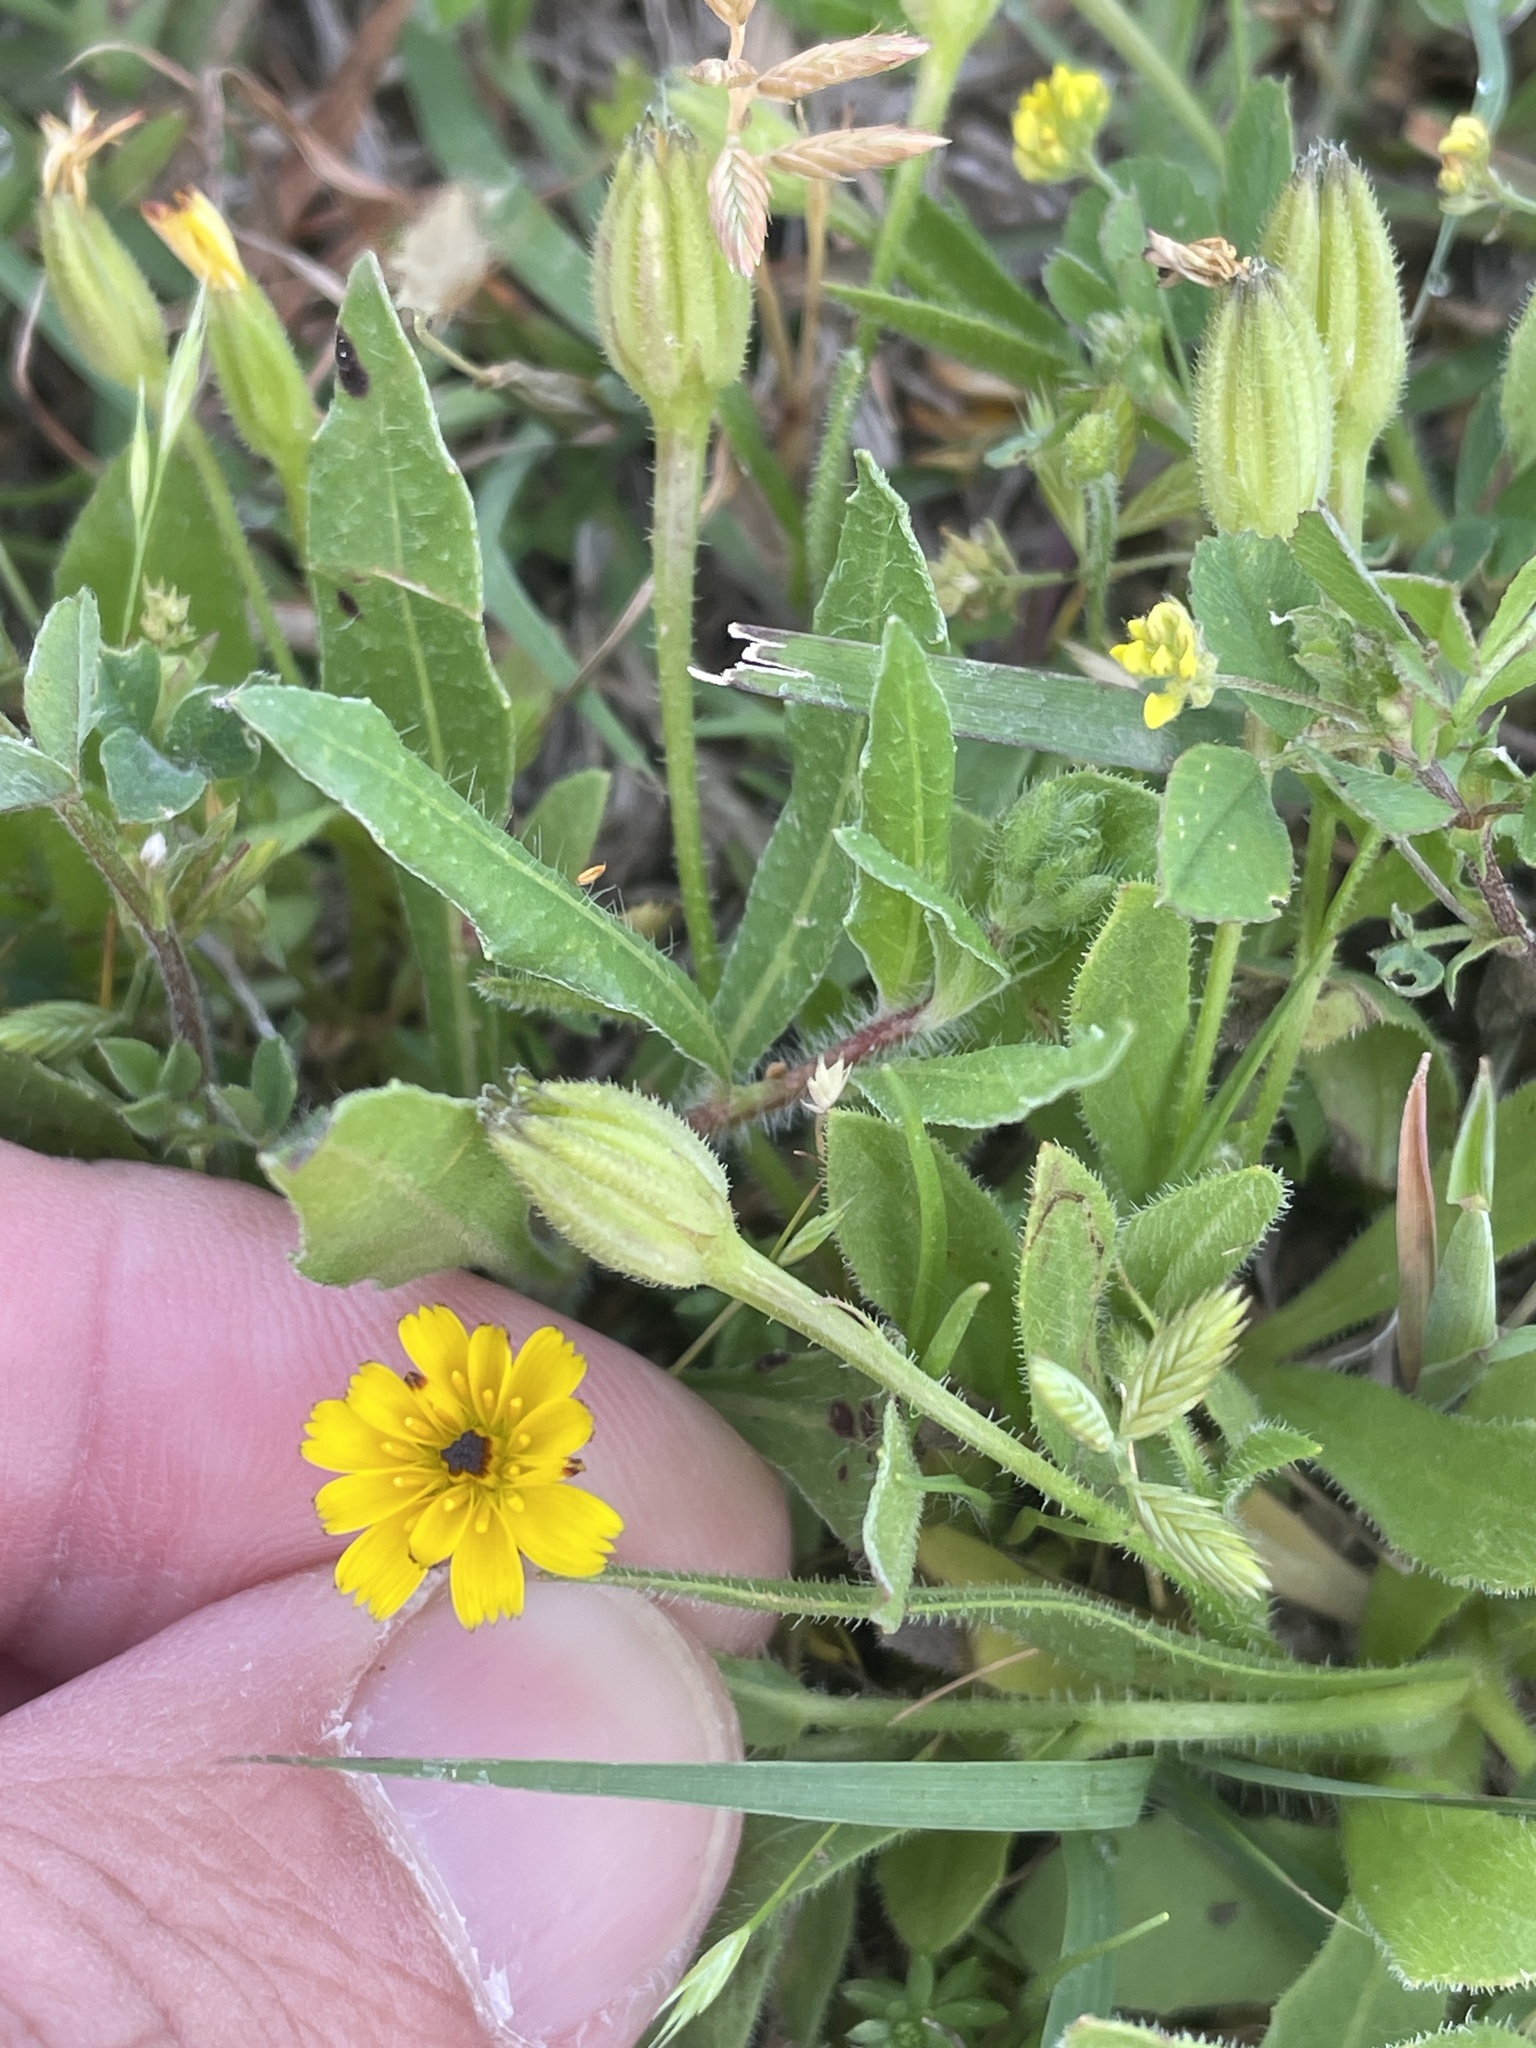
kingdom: Plantae
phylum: Tracheophyta
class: Magnoliopsida
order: Asterales
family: Asteraceae
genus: Hedypnois
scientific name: Hedypnois rhagadioloides
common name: Cretan weed
